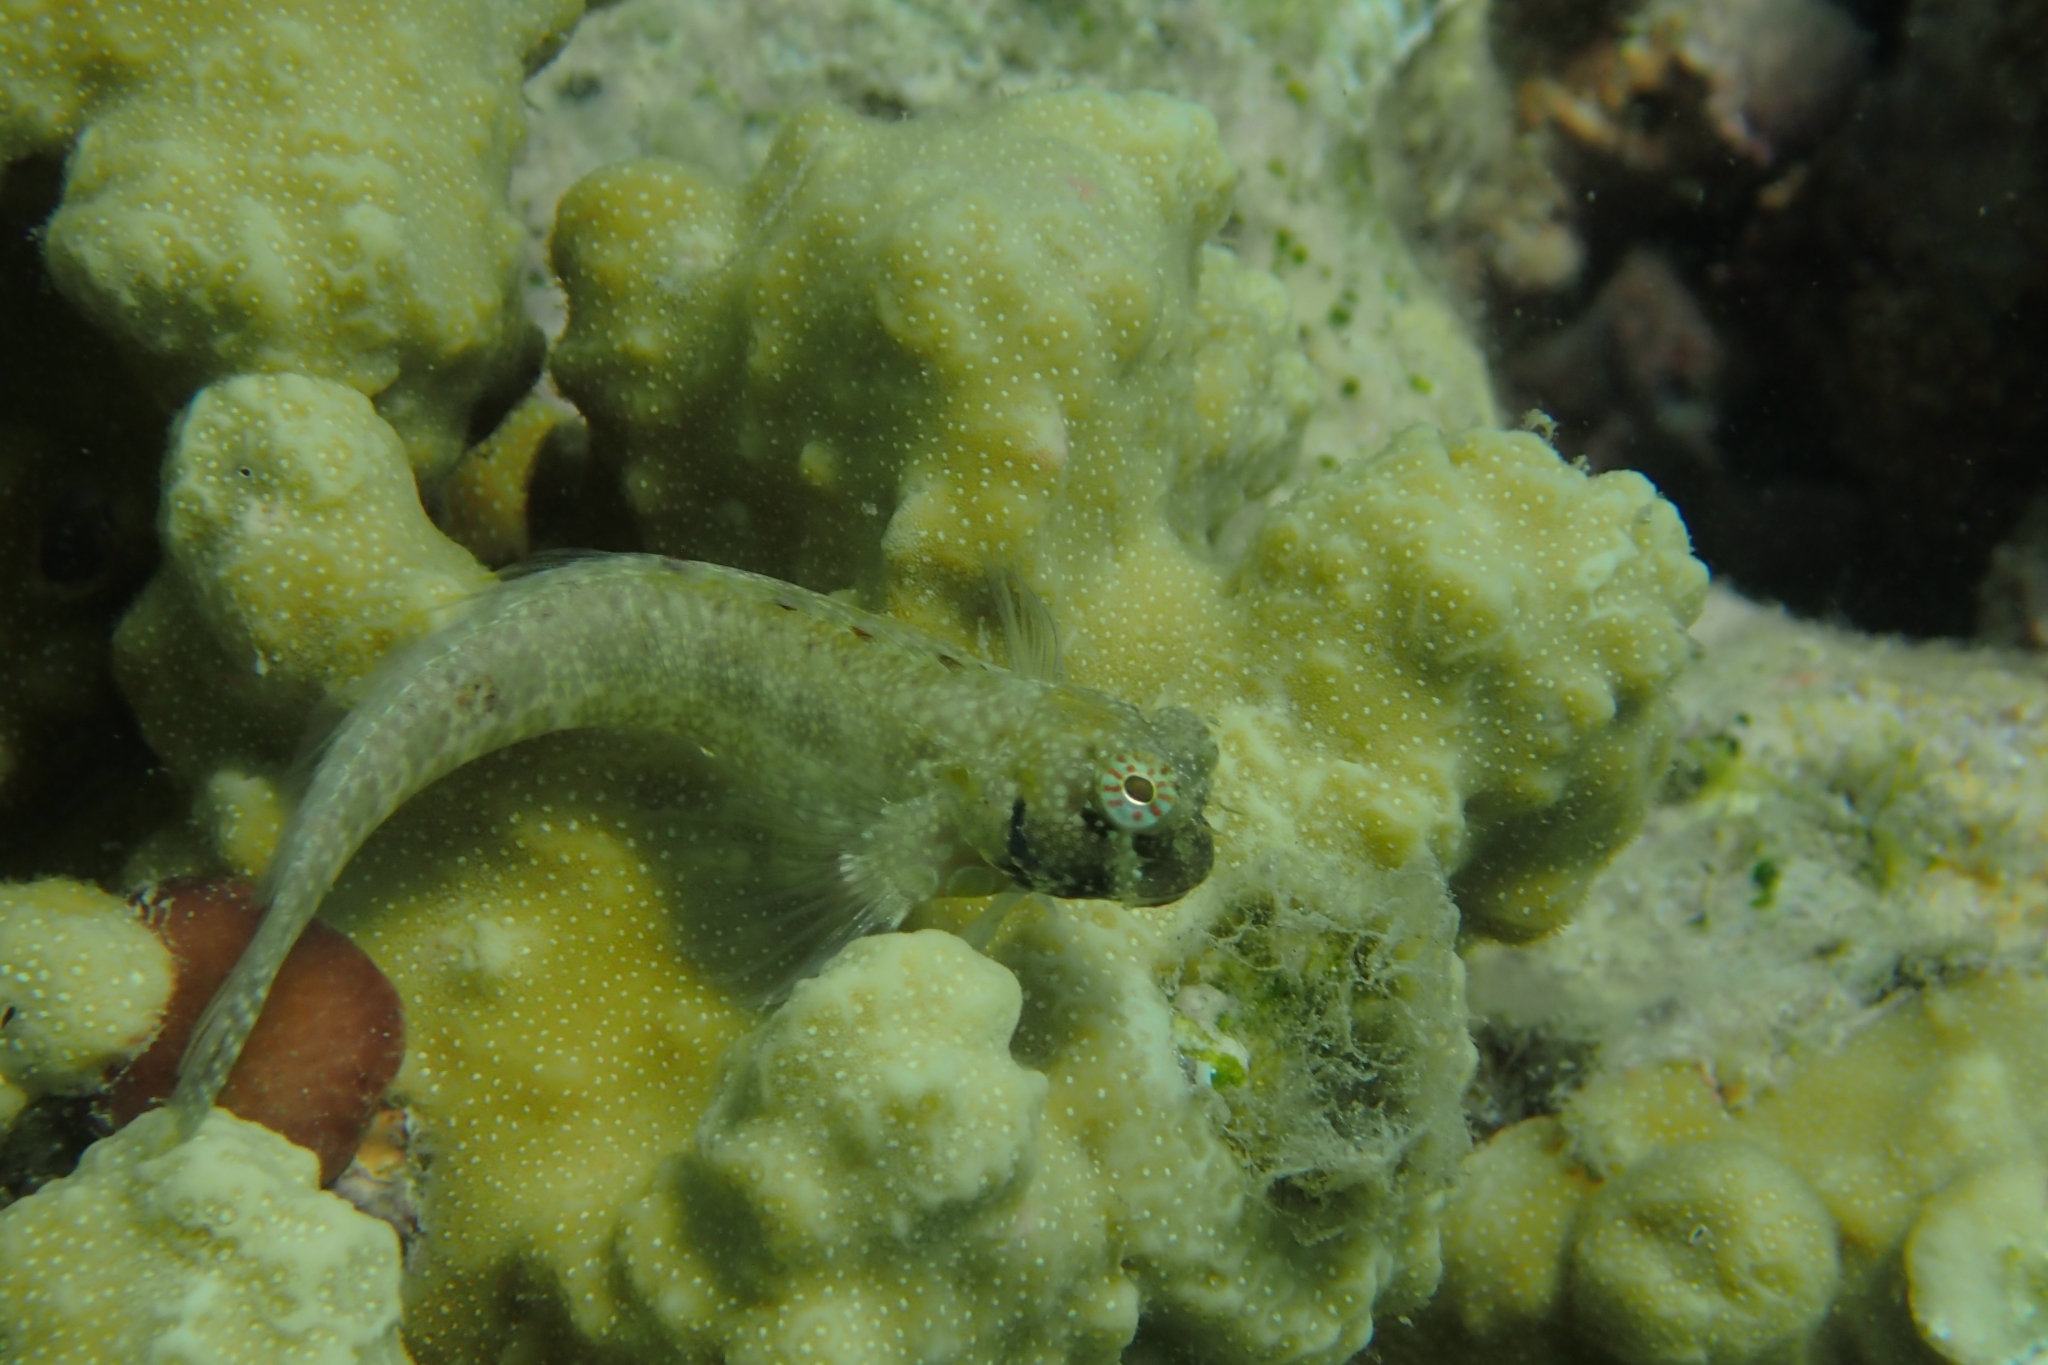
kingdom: Animalia
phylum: Chordata
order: Perciformes
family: Blenniidae
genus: Salarias
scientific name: Salarias guttatus
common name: Breast-spot blenny
